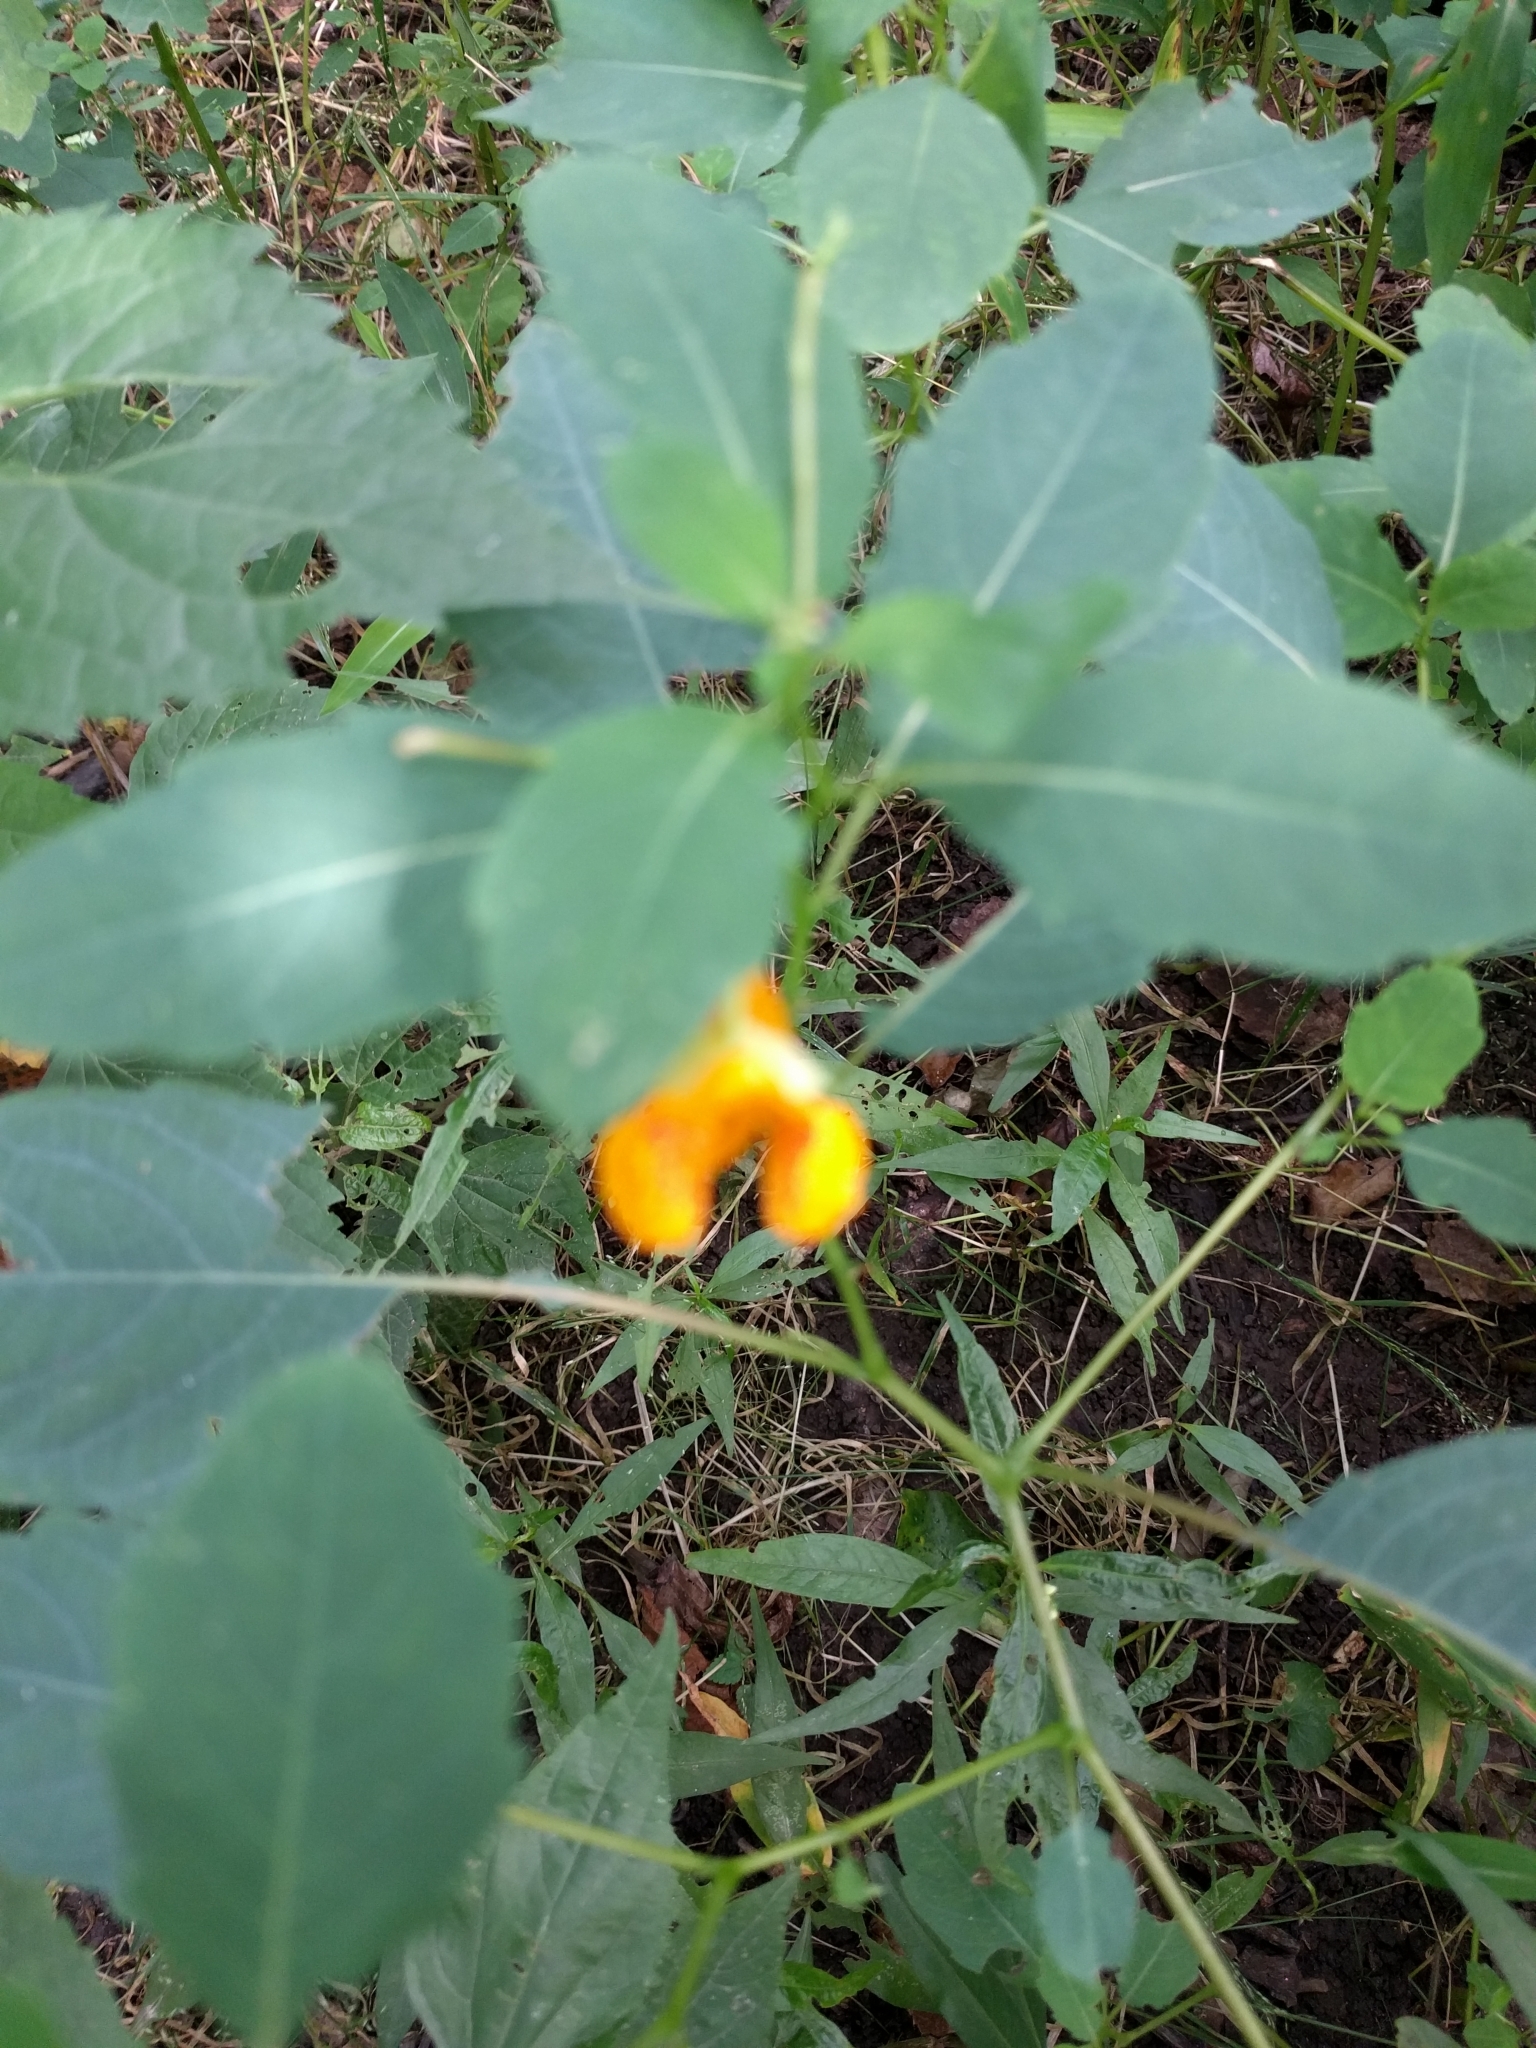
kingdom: Plantae
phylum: Tracheophyta
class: Magnoliopsida
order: Ericales
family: Balsaminaceae
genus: Impatiens
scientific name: Impatiens capensis
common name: Orange balsam
